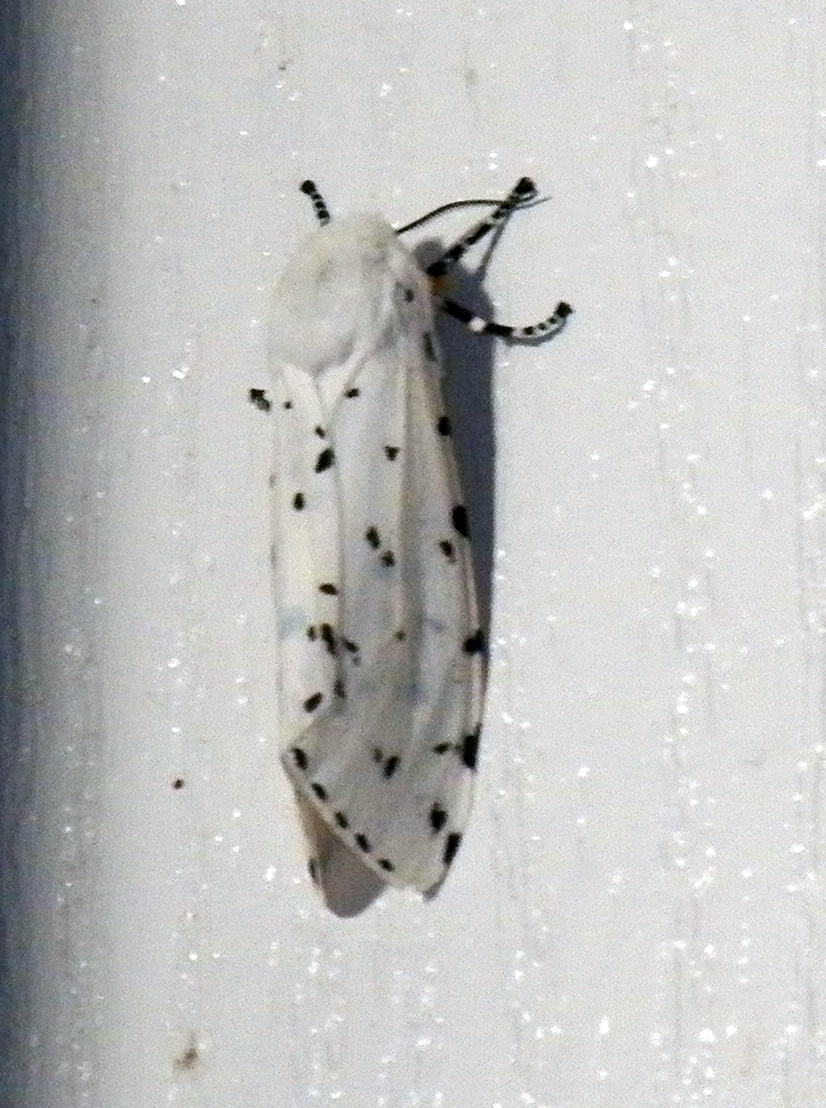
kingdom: Animalia
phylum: Arthropoda
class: Insecta
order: Lepidoptera
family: Erebidae
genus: Estigmene
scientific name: Estigmene acrea
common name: Salt marsh moth
